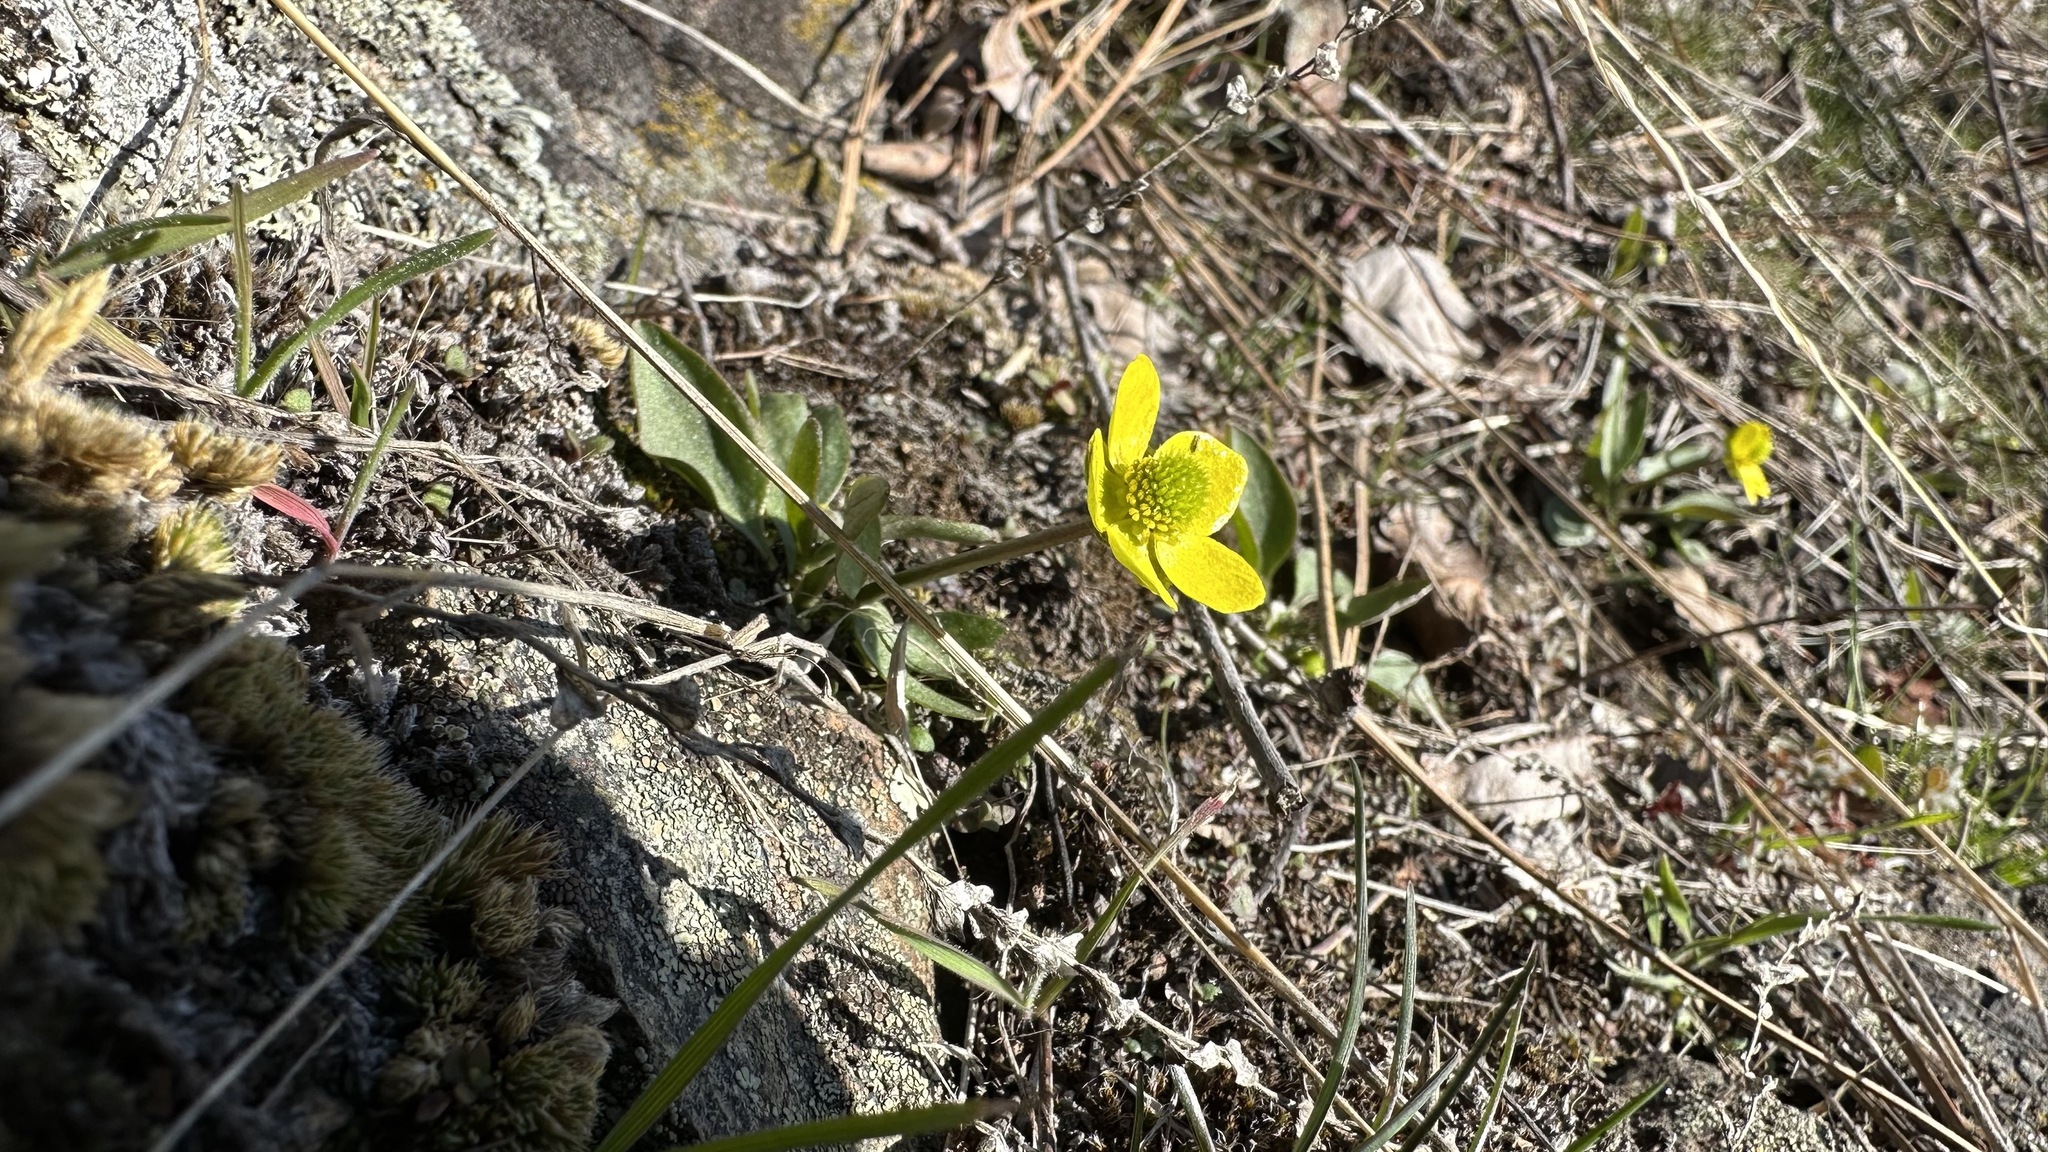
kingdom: Plantae
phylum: Tracheophyta
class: Magnoliopsida
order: Ranunculales
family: Ranunculaceae
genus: Ranunculus
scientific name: Ranunculus glaberrimus
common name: Sagebrush buttercup
